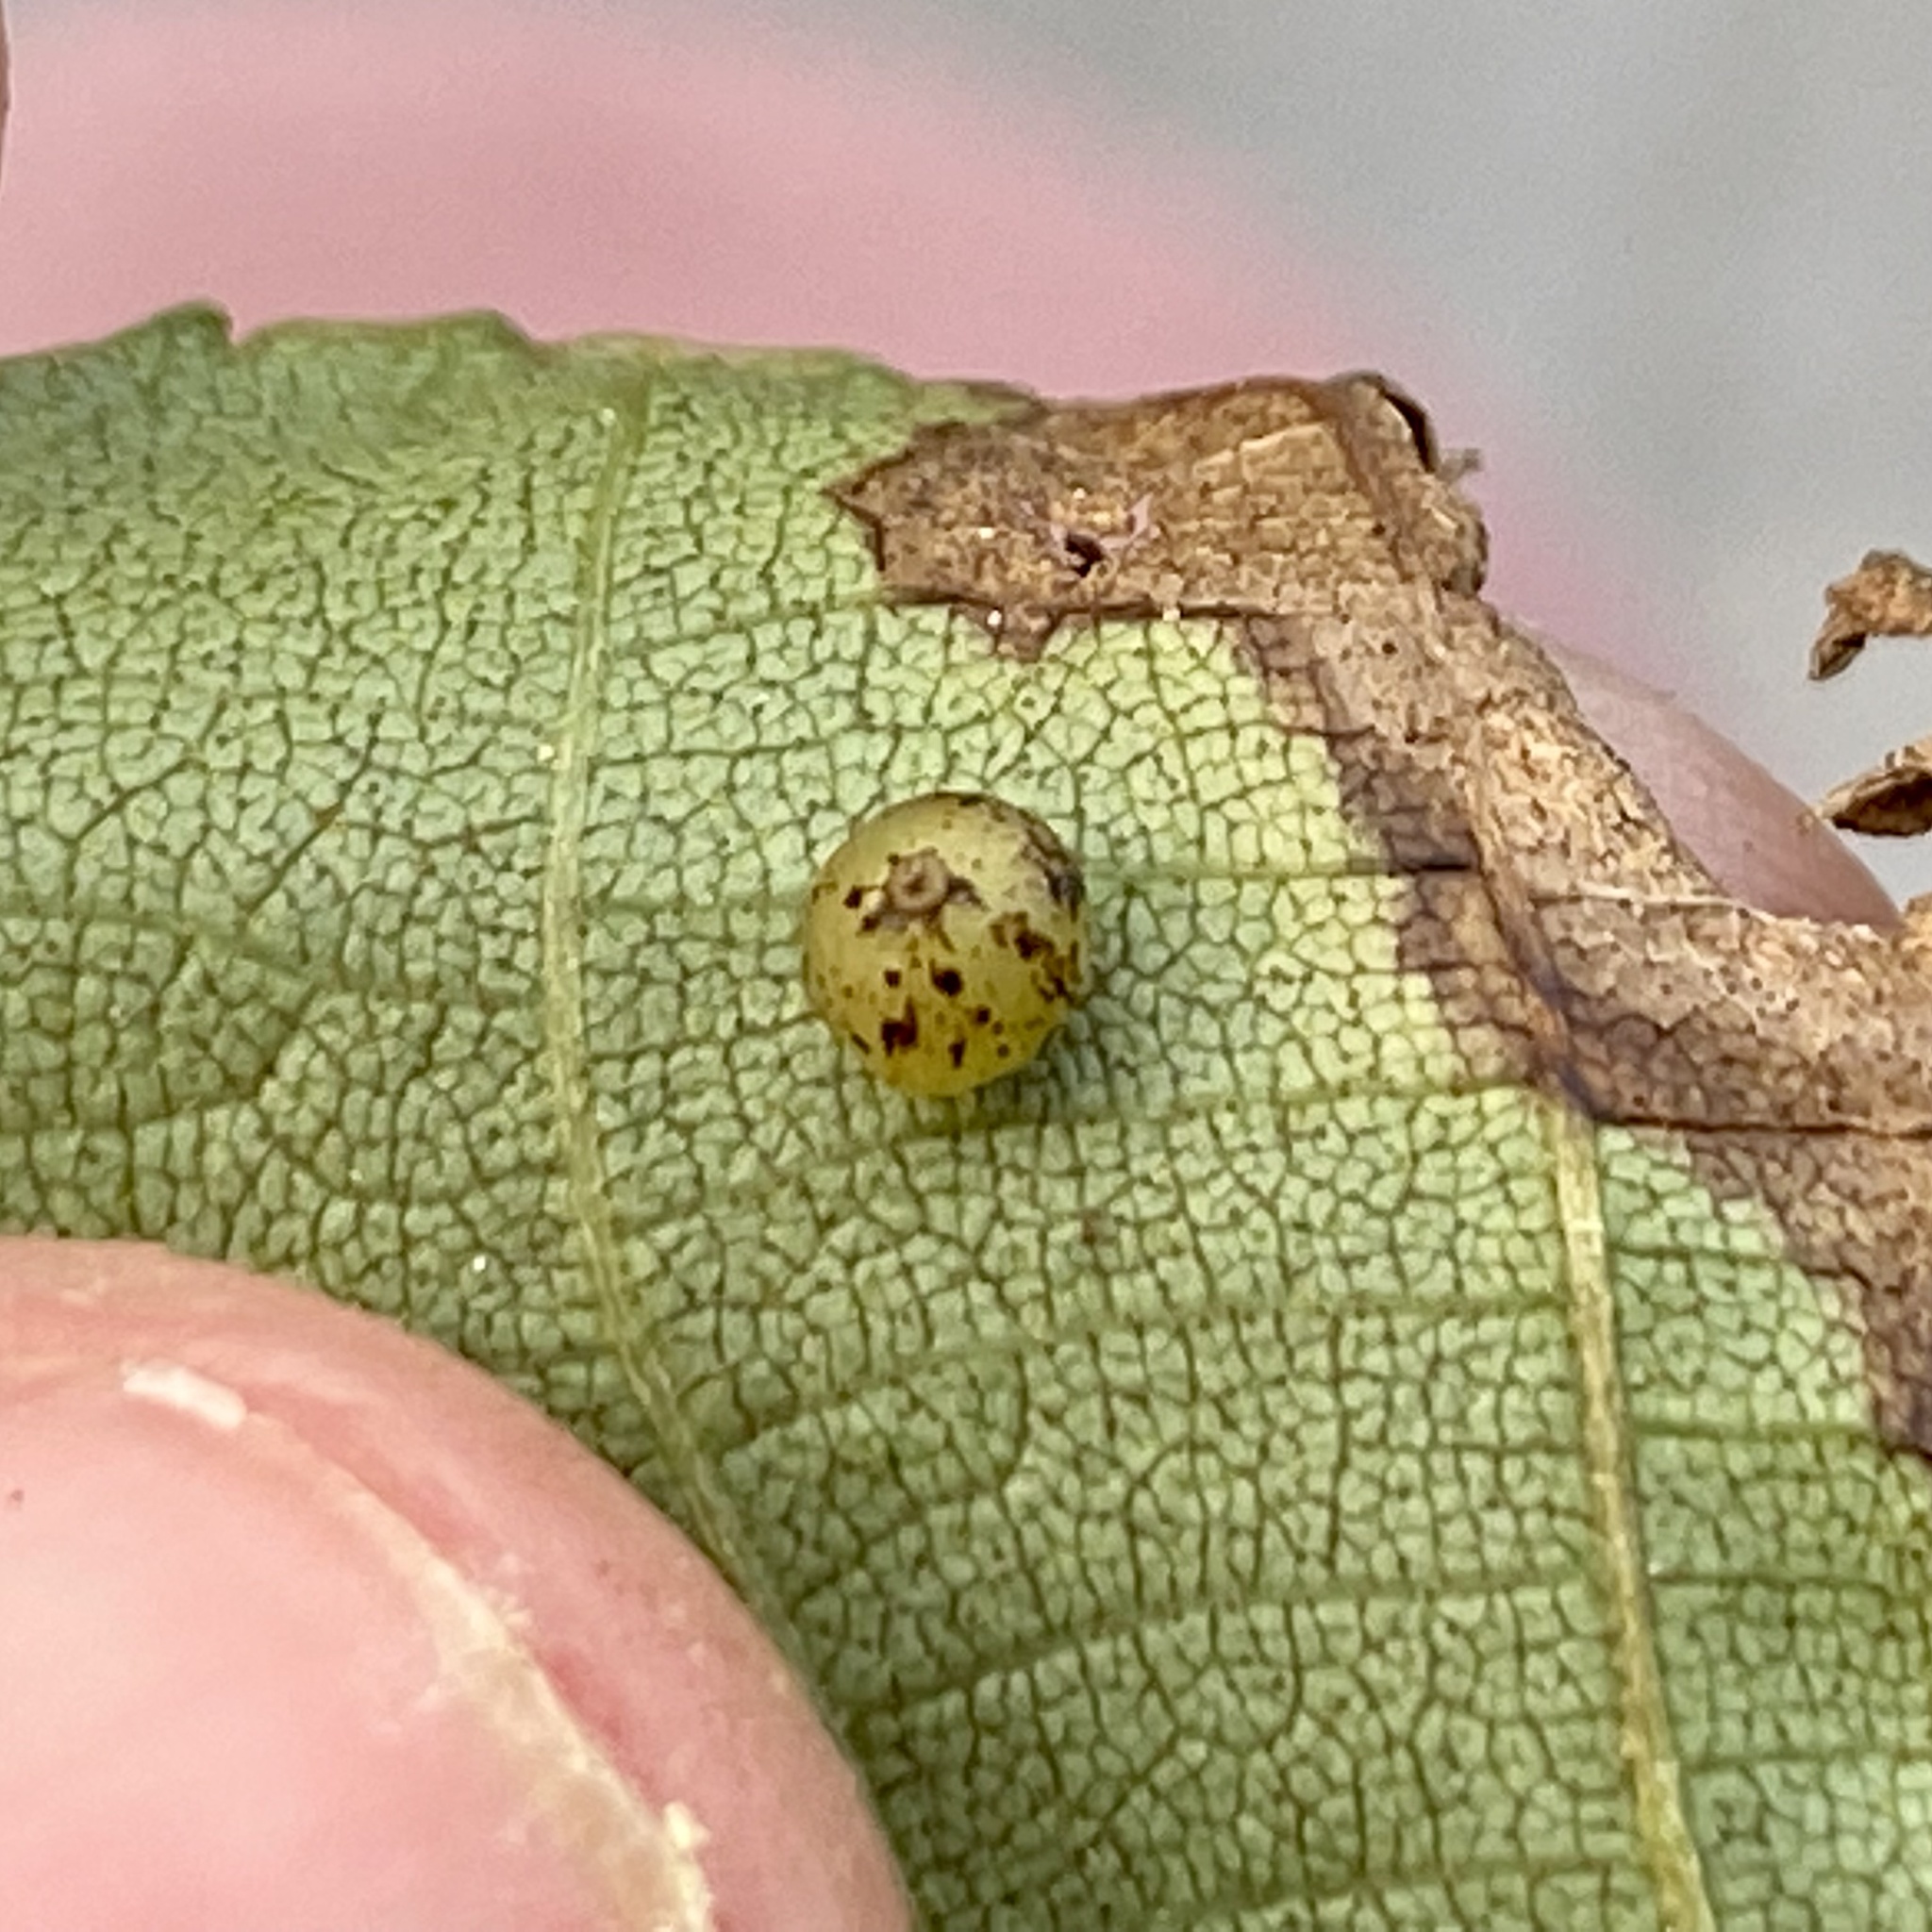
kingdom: Animalia
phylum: Arthropoda
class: Insecta
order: Diptera
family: Cecidomyiidae
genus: Caryomyia
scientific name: Caryomyia leviglobus
